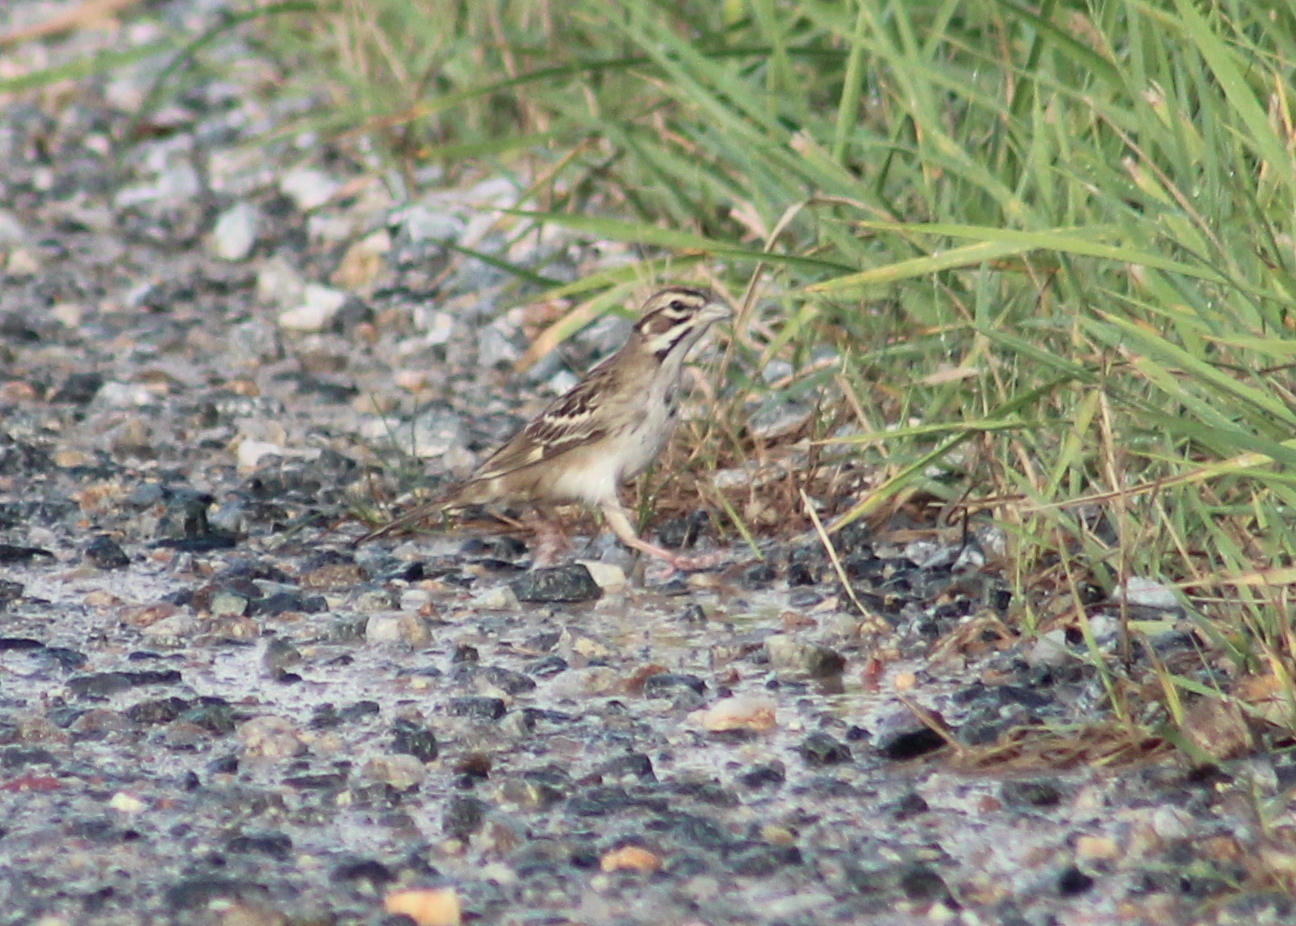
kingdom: Animalia
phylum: Chordata
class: Aves
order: Passeriformes
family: Passerellidae
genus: Chondestes
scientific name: Chondestes grammacus
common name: Lark sparrow
